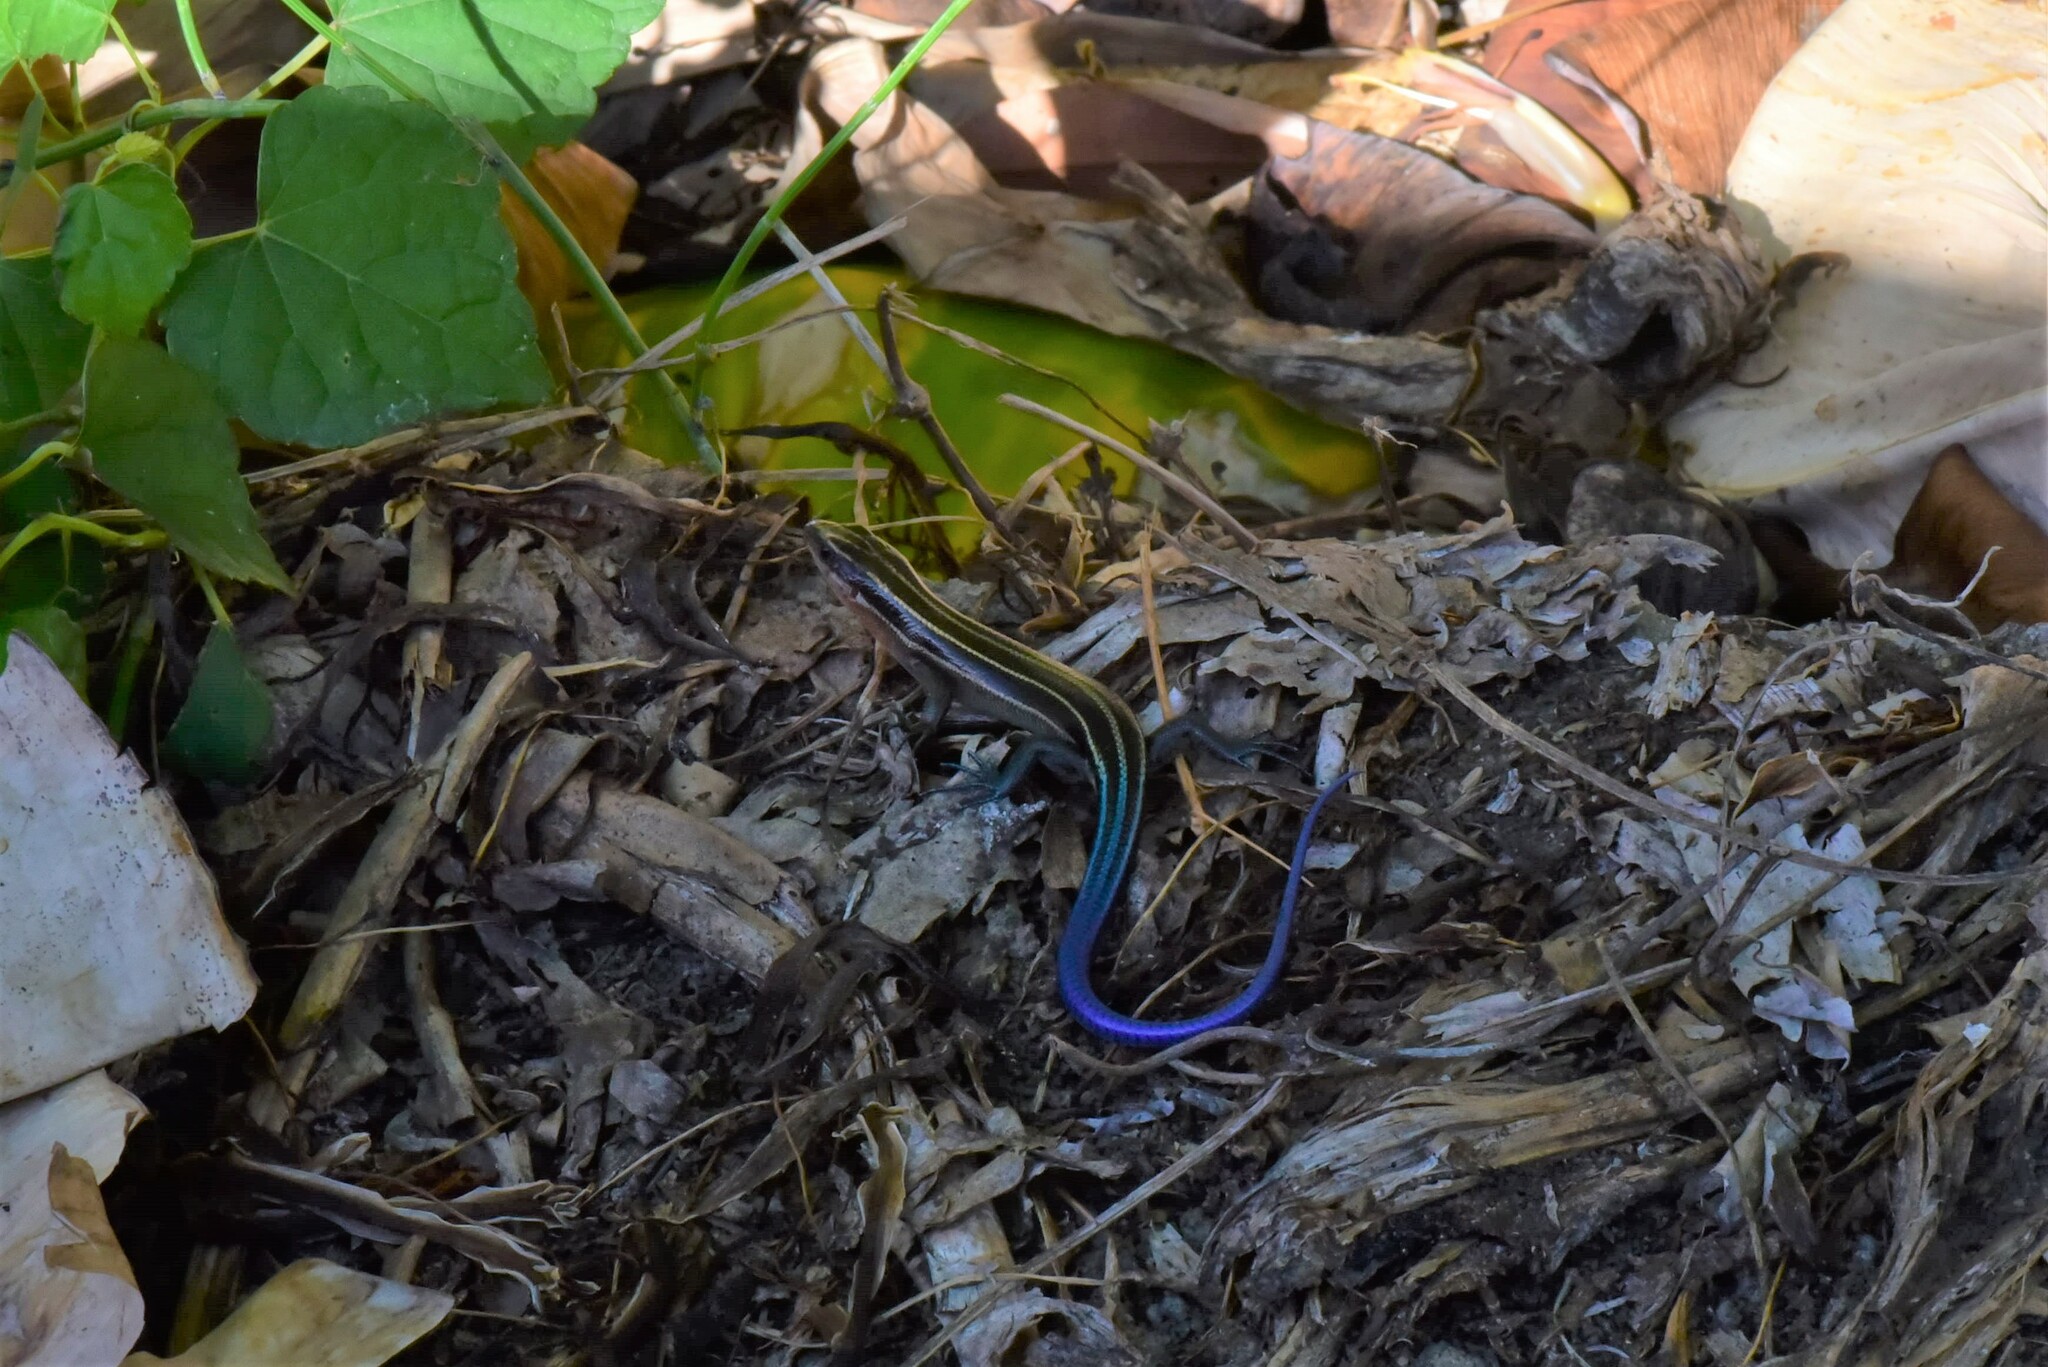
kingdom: Animalia
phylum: Chordata
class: Squamata
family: Scincidae
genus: Plestiodon
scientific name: Plestiodon elegans
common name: Shanghai elegant skink
